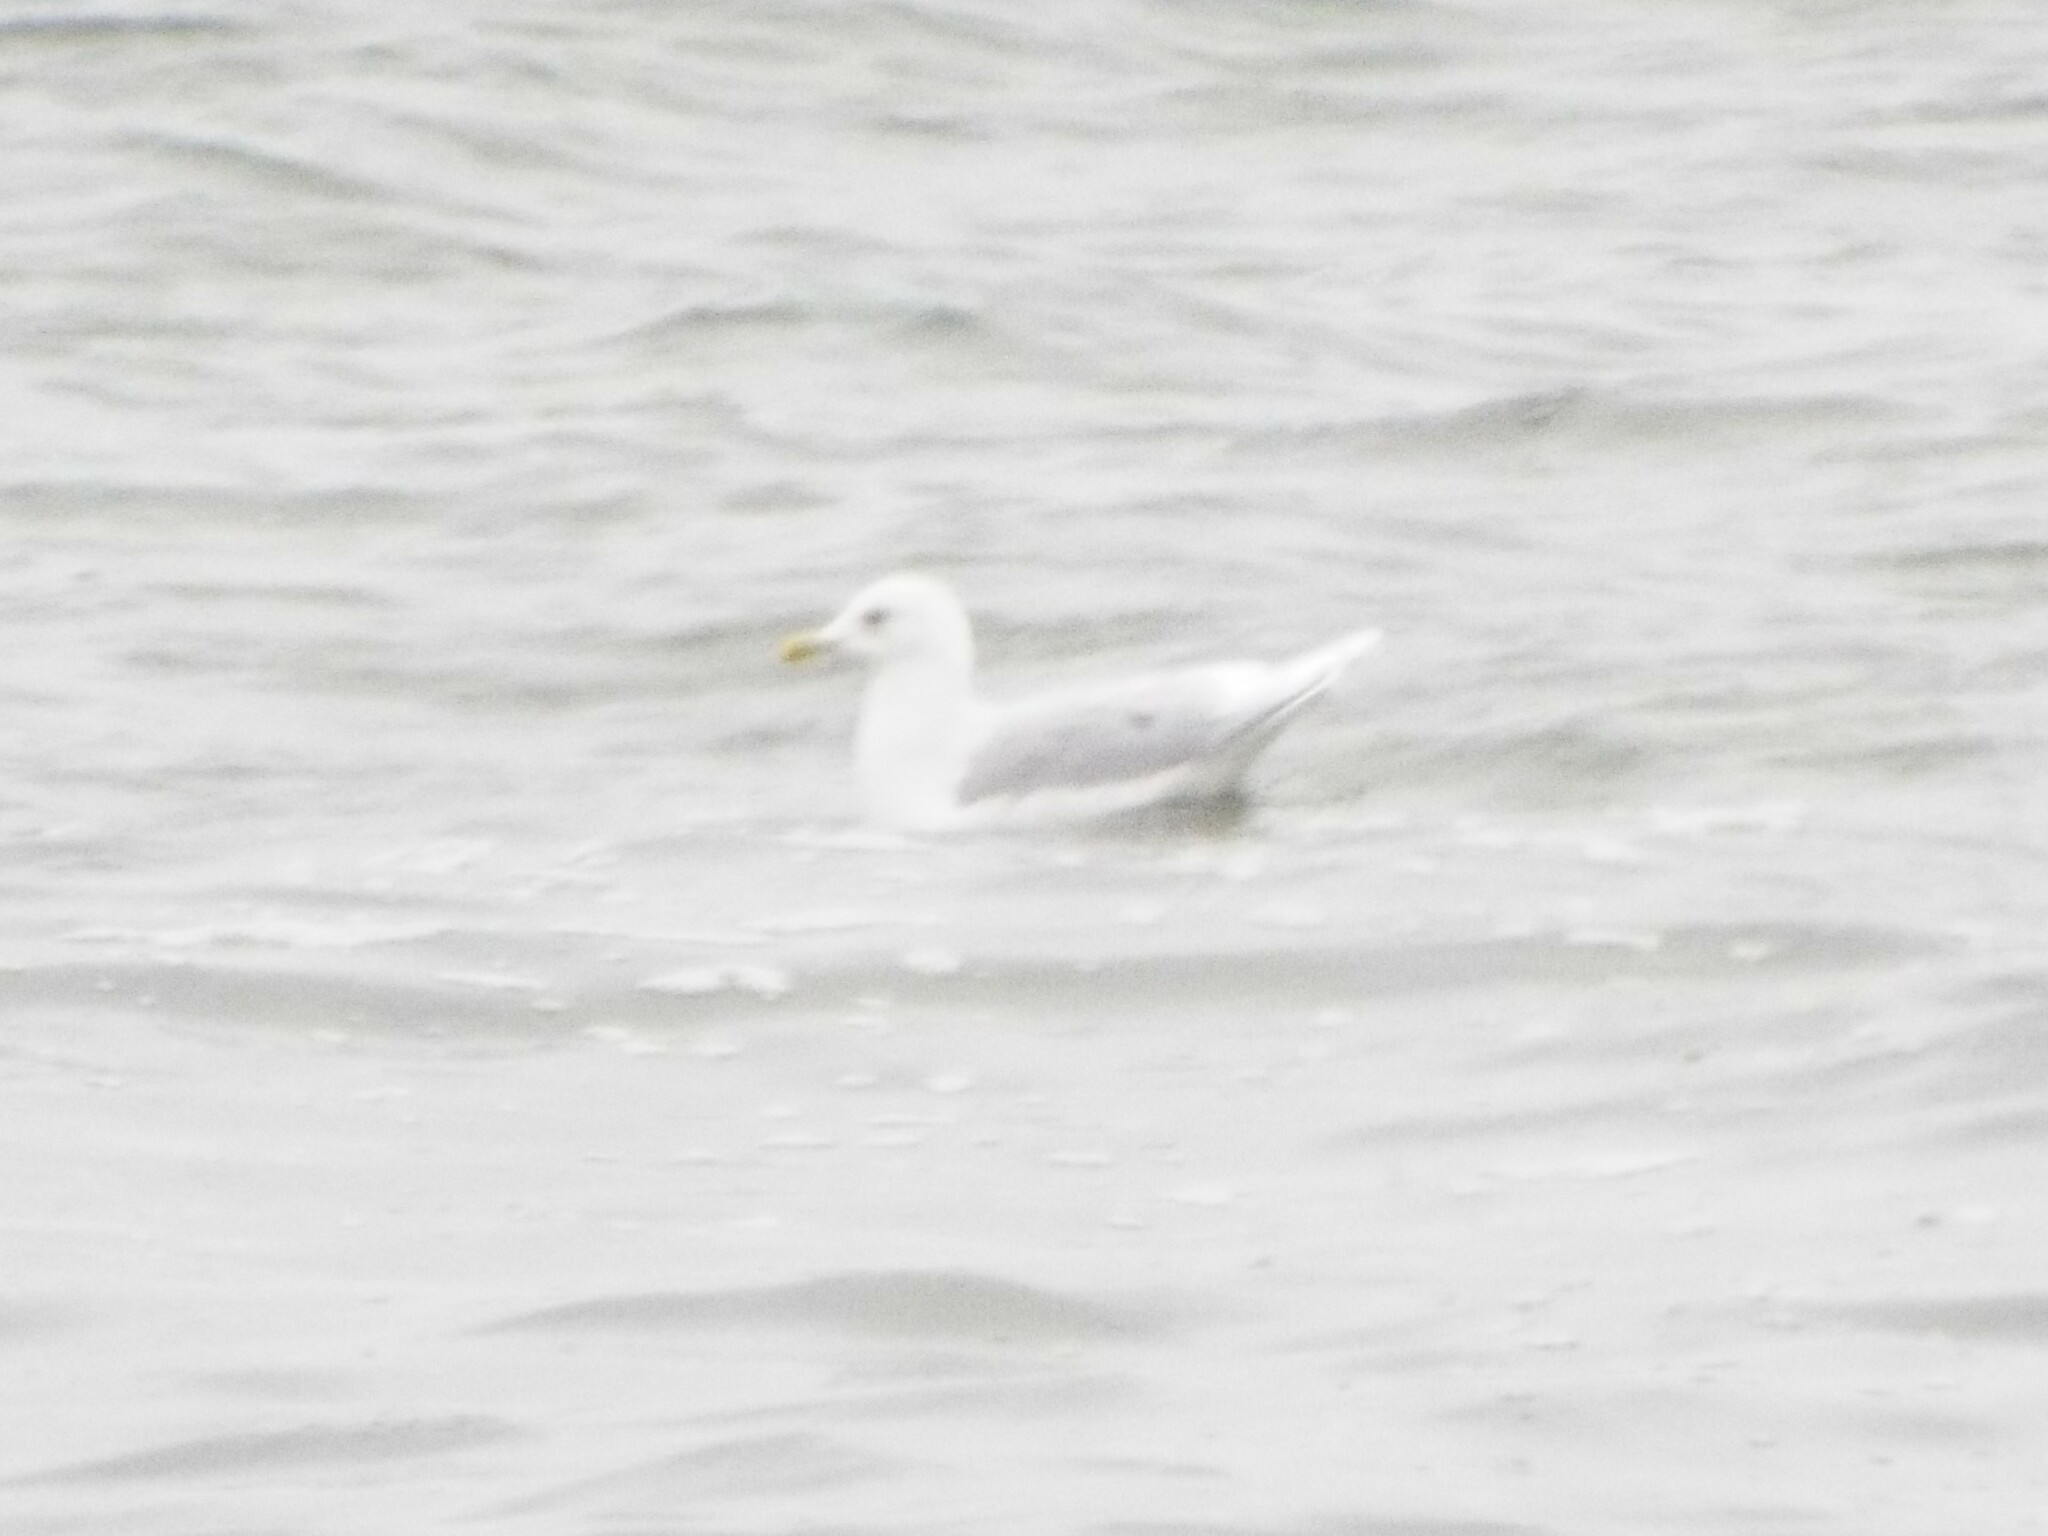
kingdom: Animalia
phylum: Chordata
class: Aves
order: Charadriiformes
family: Laridae
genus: Larus
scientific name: Larus glaucoides
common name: Iceland gull
